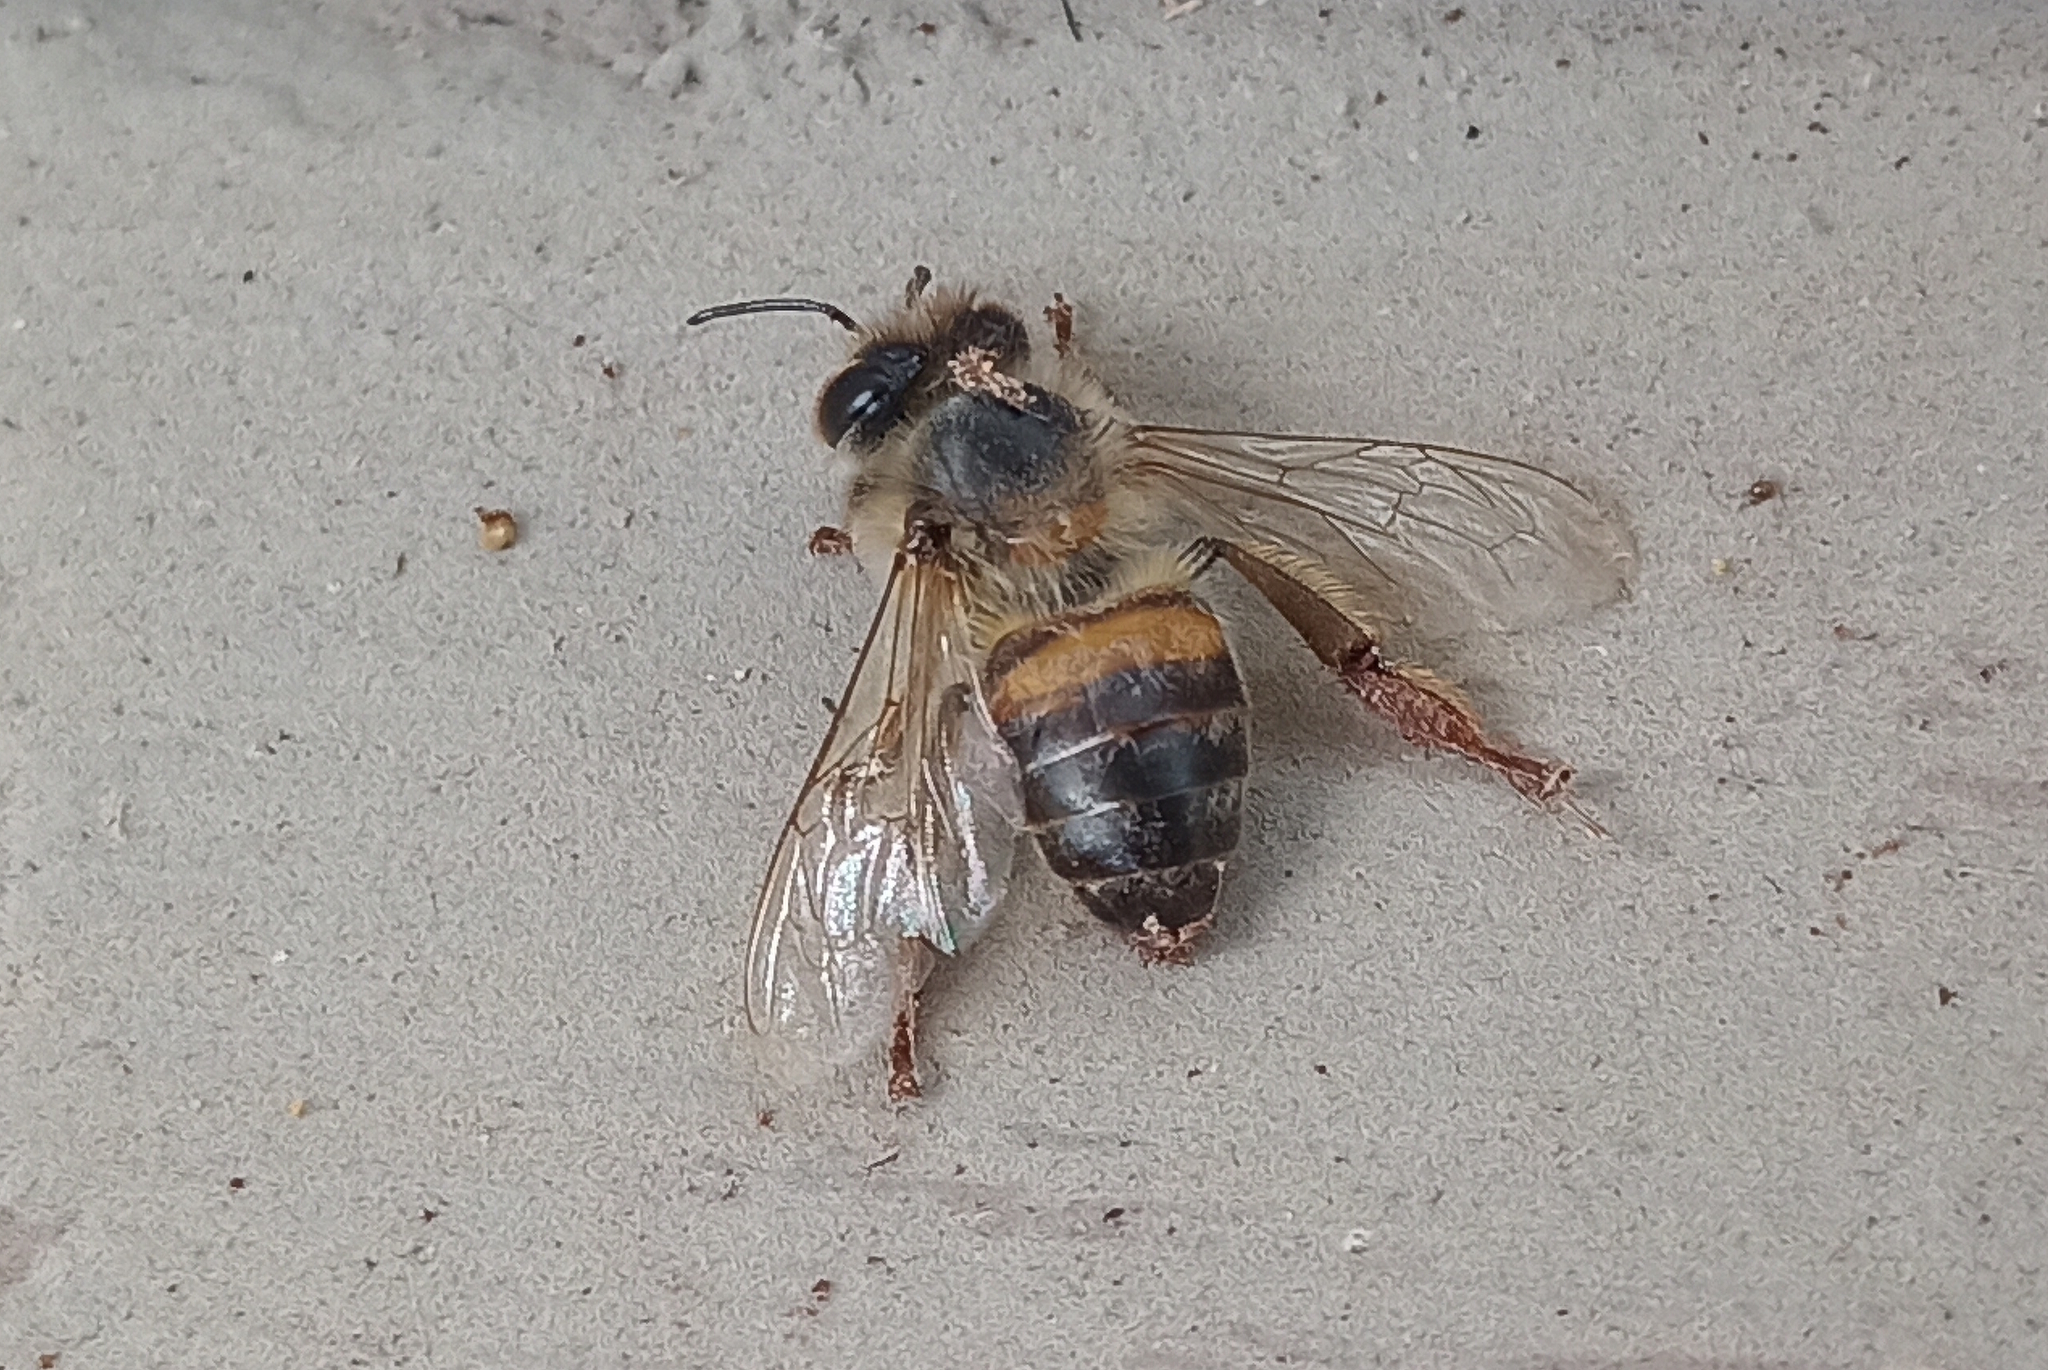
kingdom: Animalia
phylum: Arthropoda
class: Insecta
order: Hymenoptera
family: Apidae
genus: Apis
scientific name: Apis mellifera
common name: Honey bee
